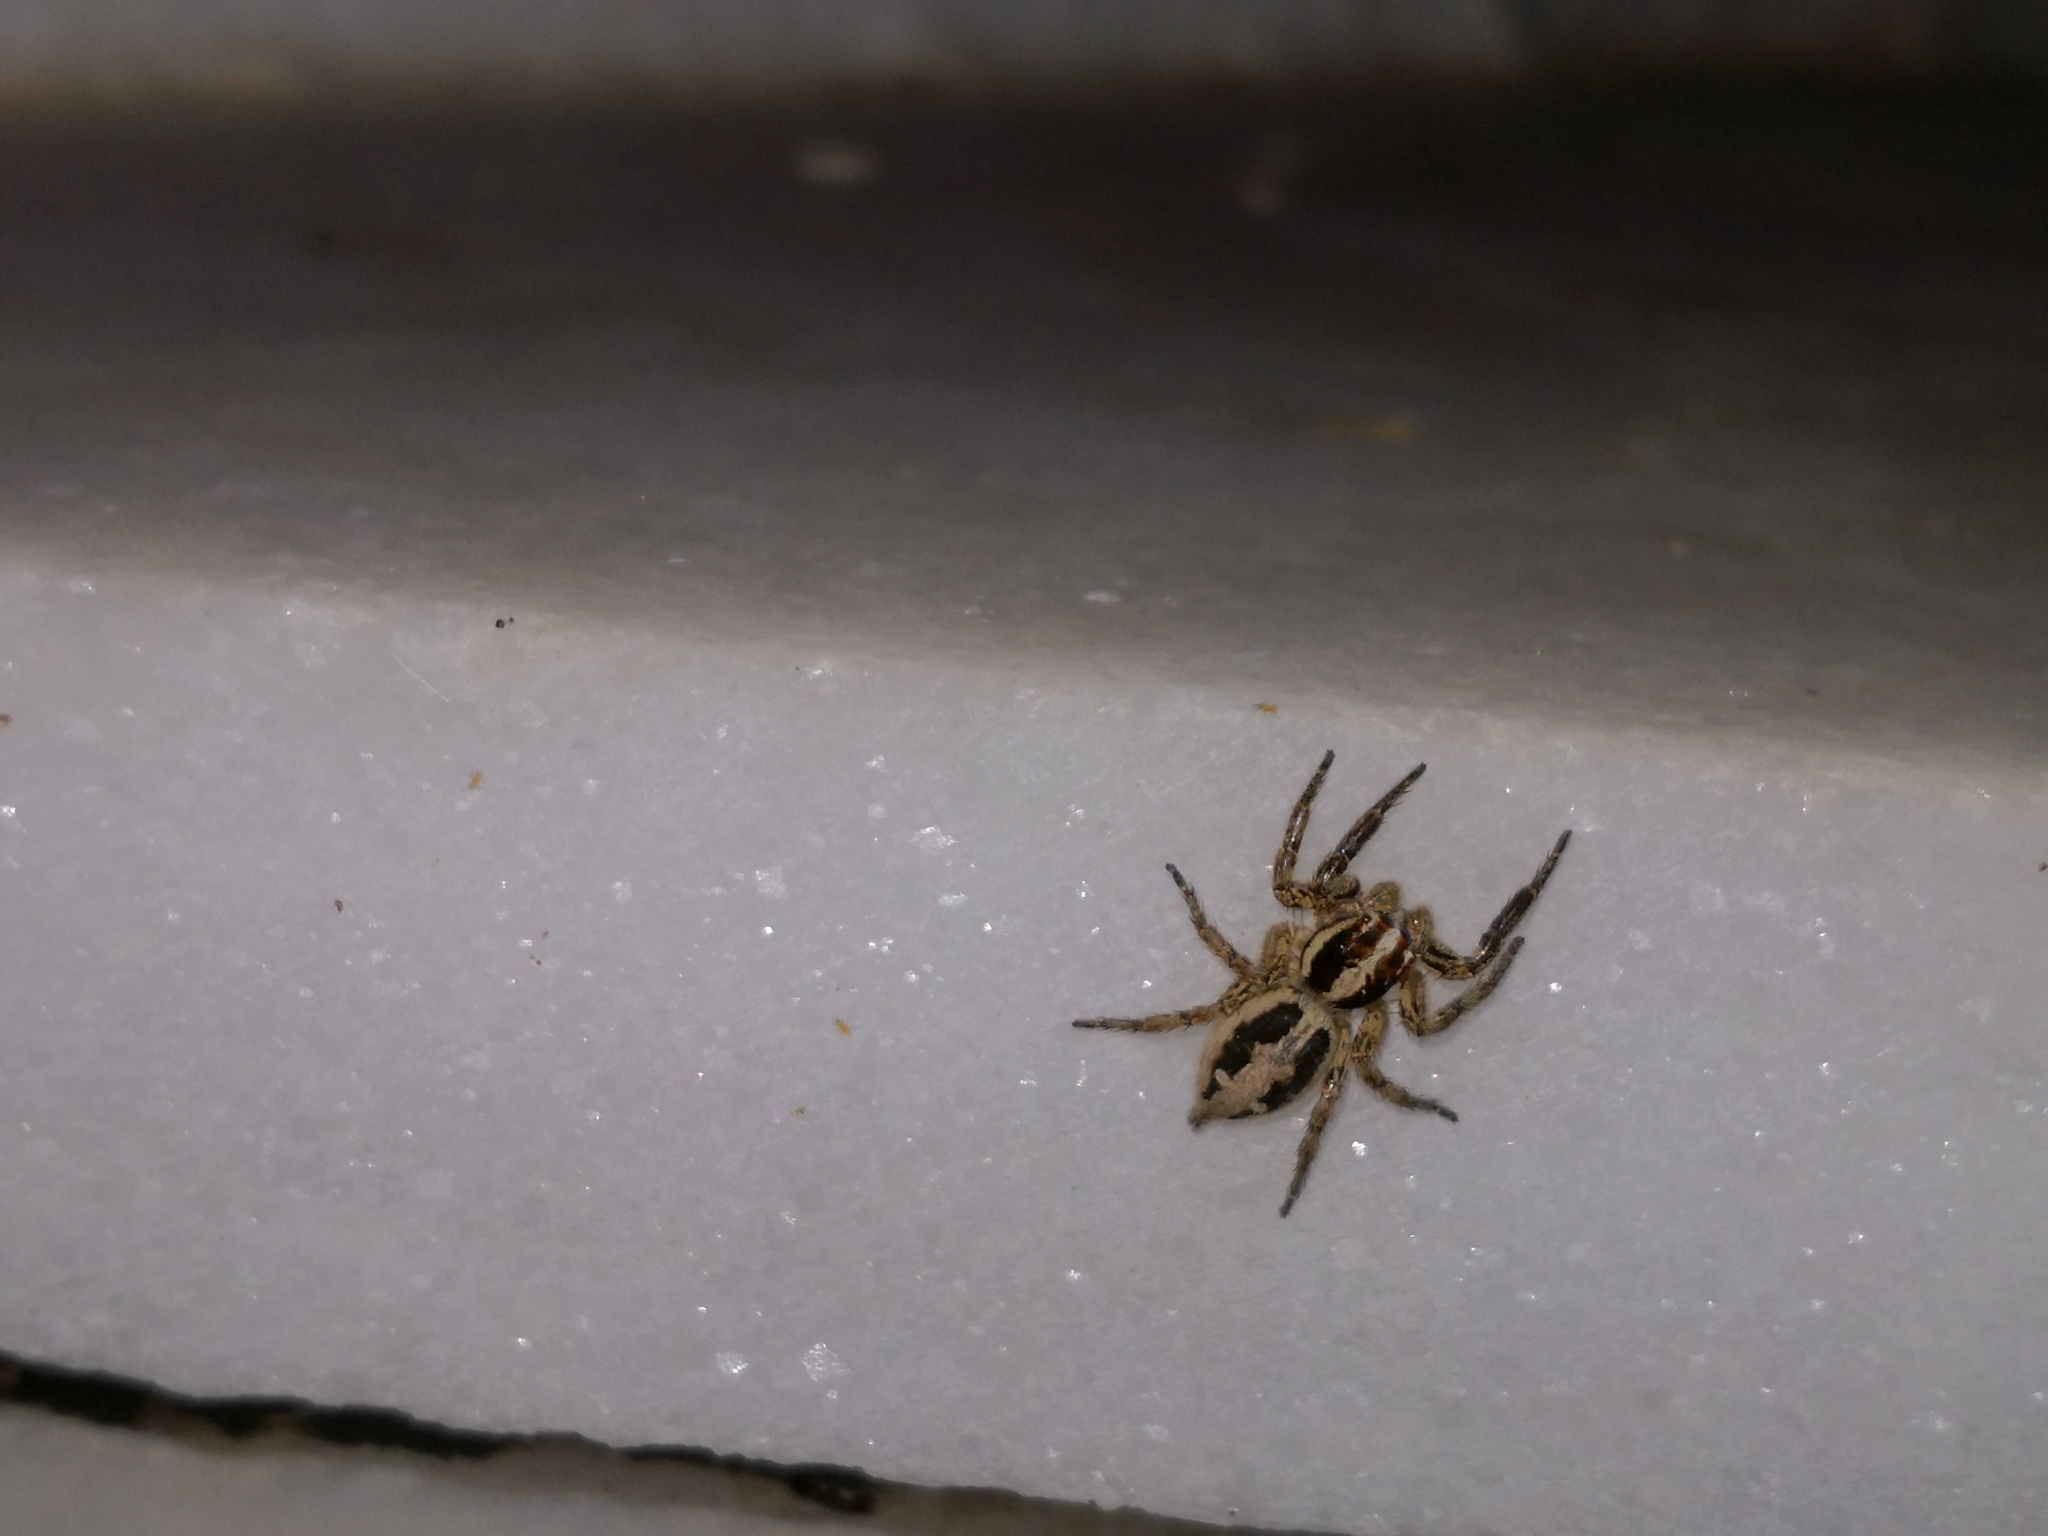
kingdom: Animalia
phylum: Arthropoda
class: Arachnida
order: Araneae
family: Salticidae
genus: Plexippus
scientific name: Plexippus paykulli
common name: Pantropical jumper
